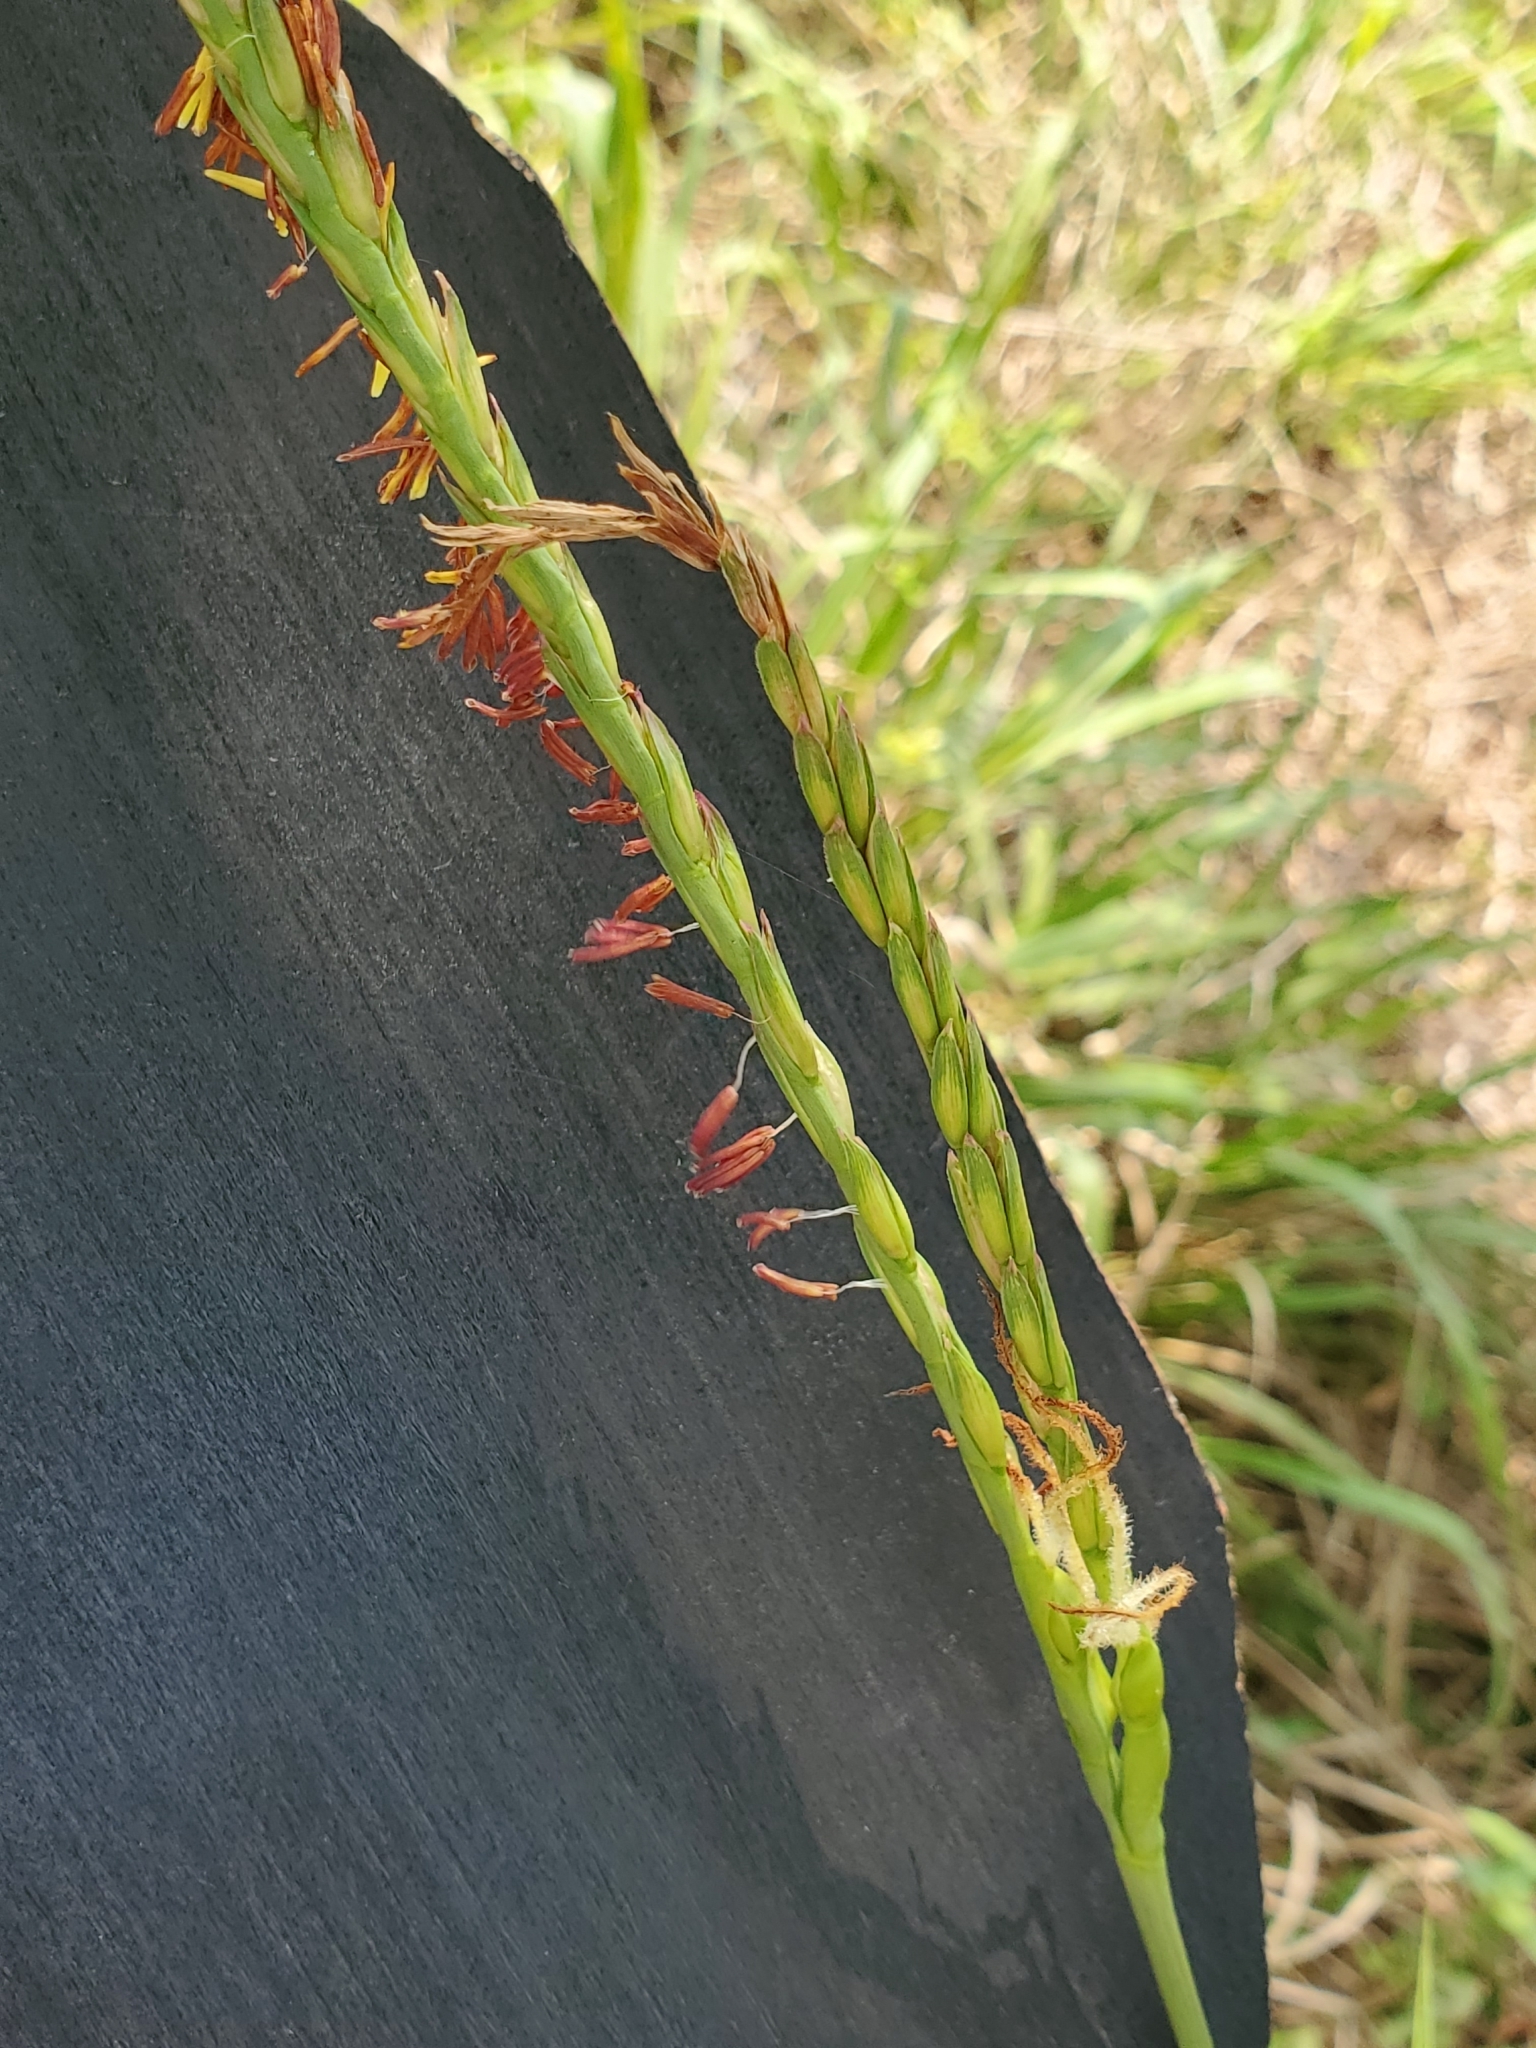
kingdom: Plantae
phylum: Tracheophyta
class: Liliopsida
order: Poales
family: Poaceae
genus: Tripsacum
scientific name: Tripsacum dactyloides
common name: Buffalo-grass
